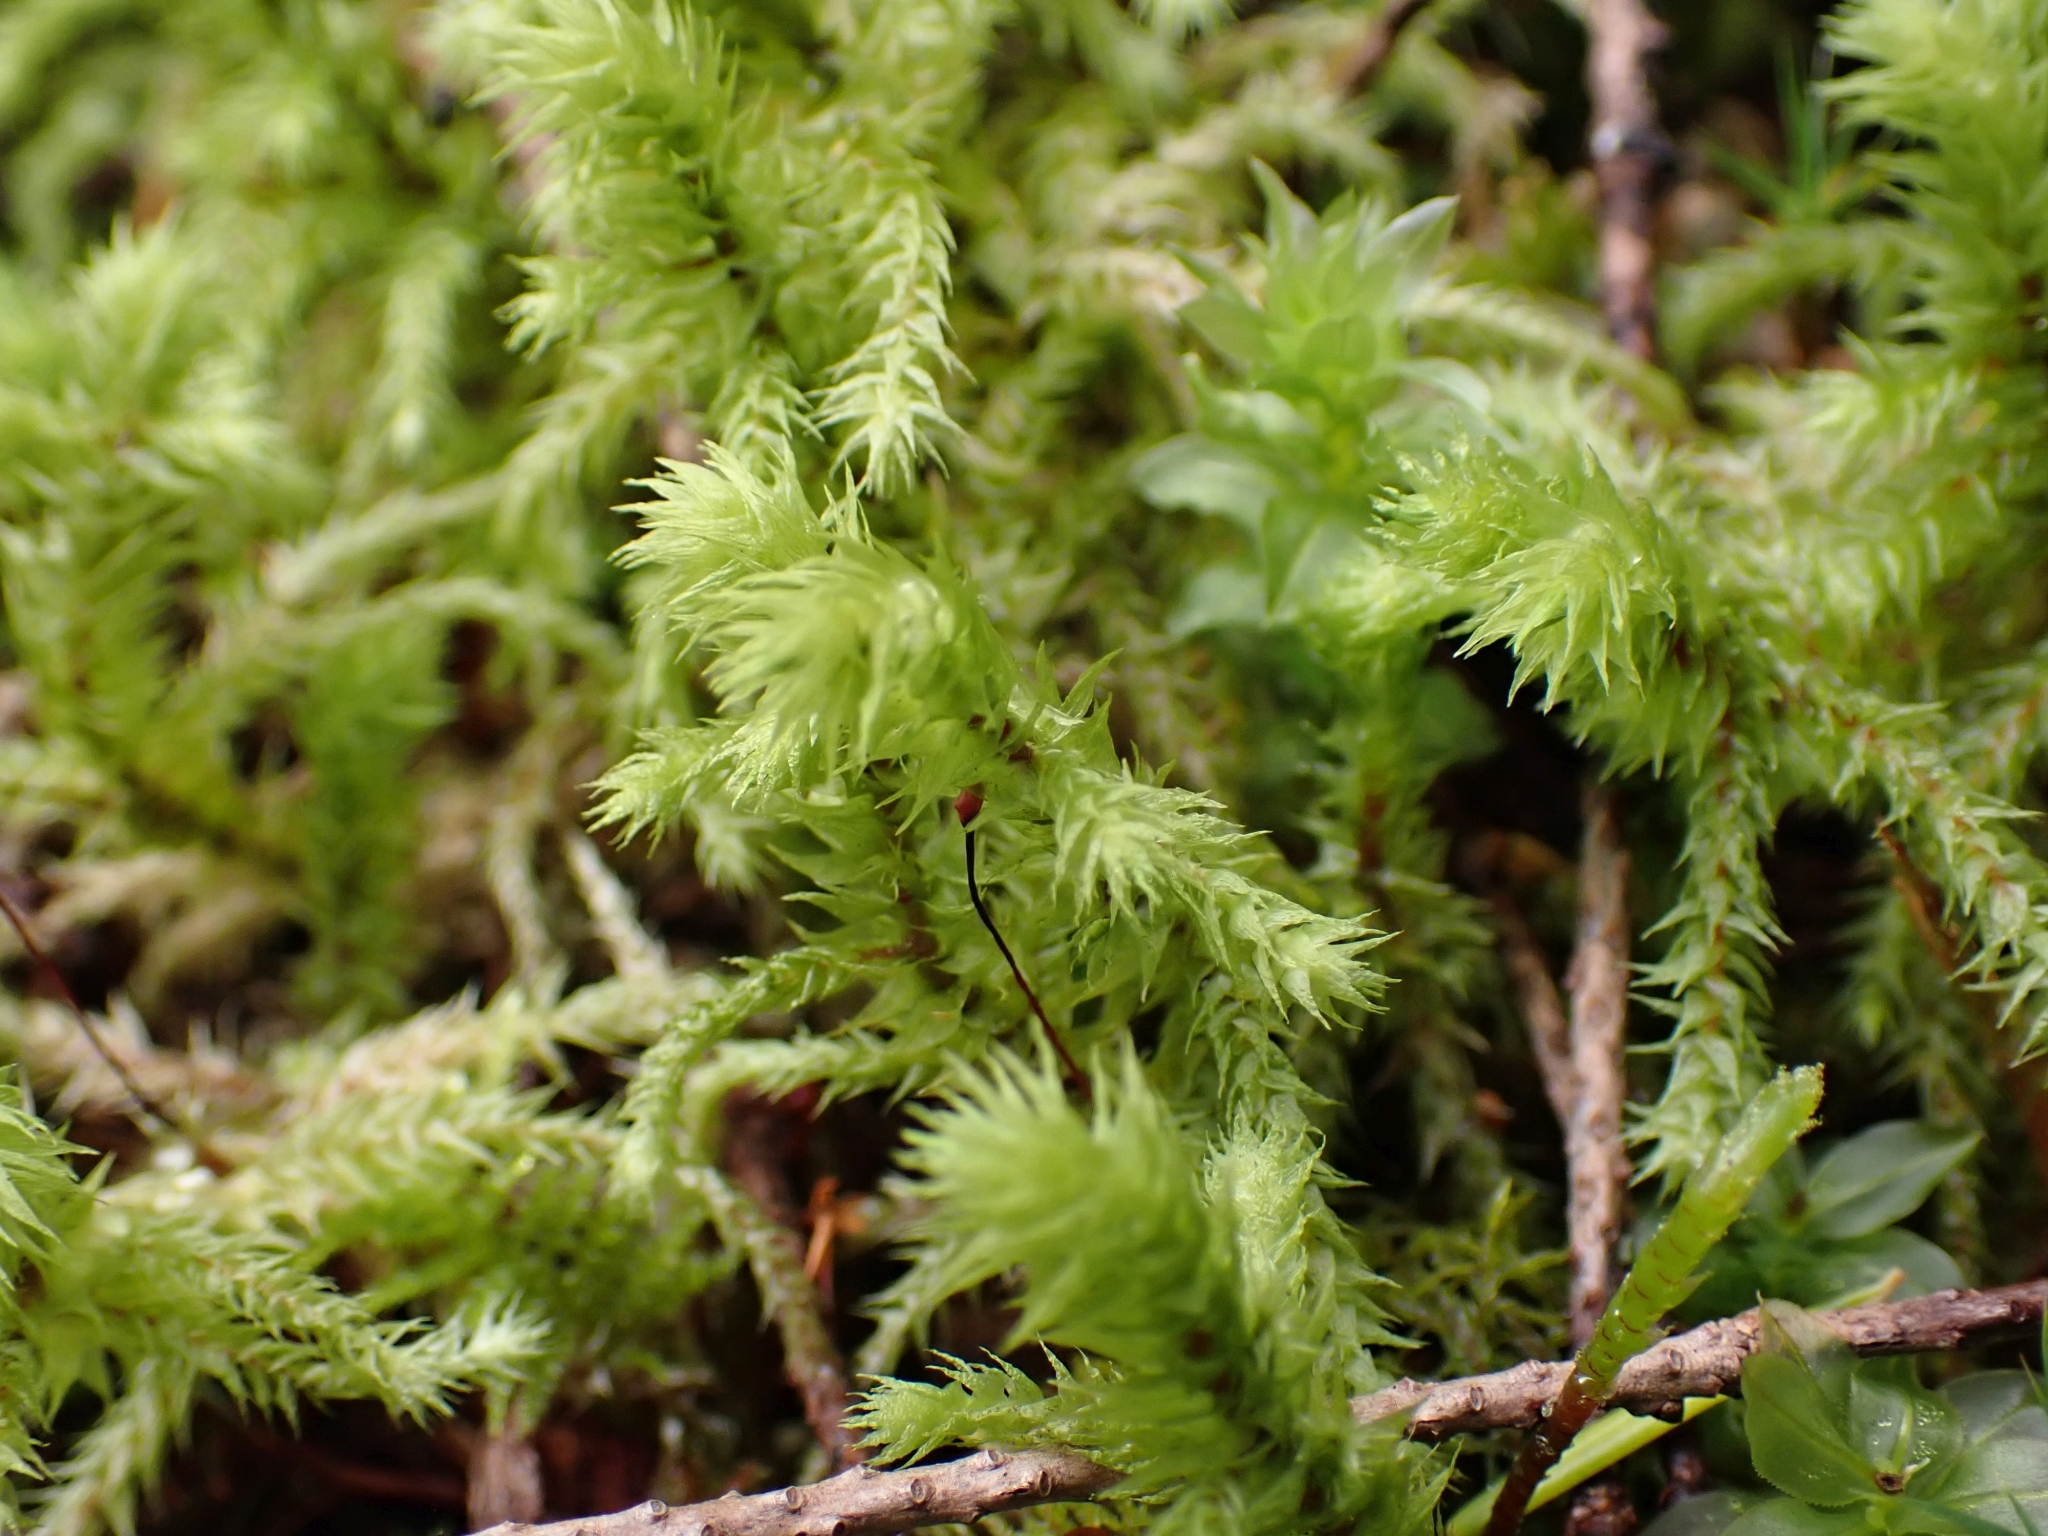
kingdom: Plantae
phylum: Bryophyta
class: Bryopsida
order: Hypnales
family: Hylocomiaceae
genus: Hylocomiadelphus
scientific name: Hylocomiadelphus triquetrus
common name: Rough goose neck moss
